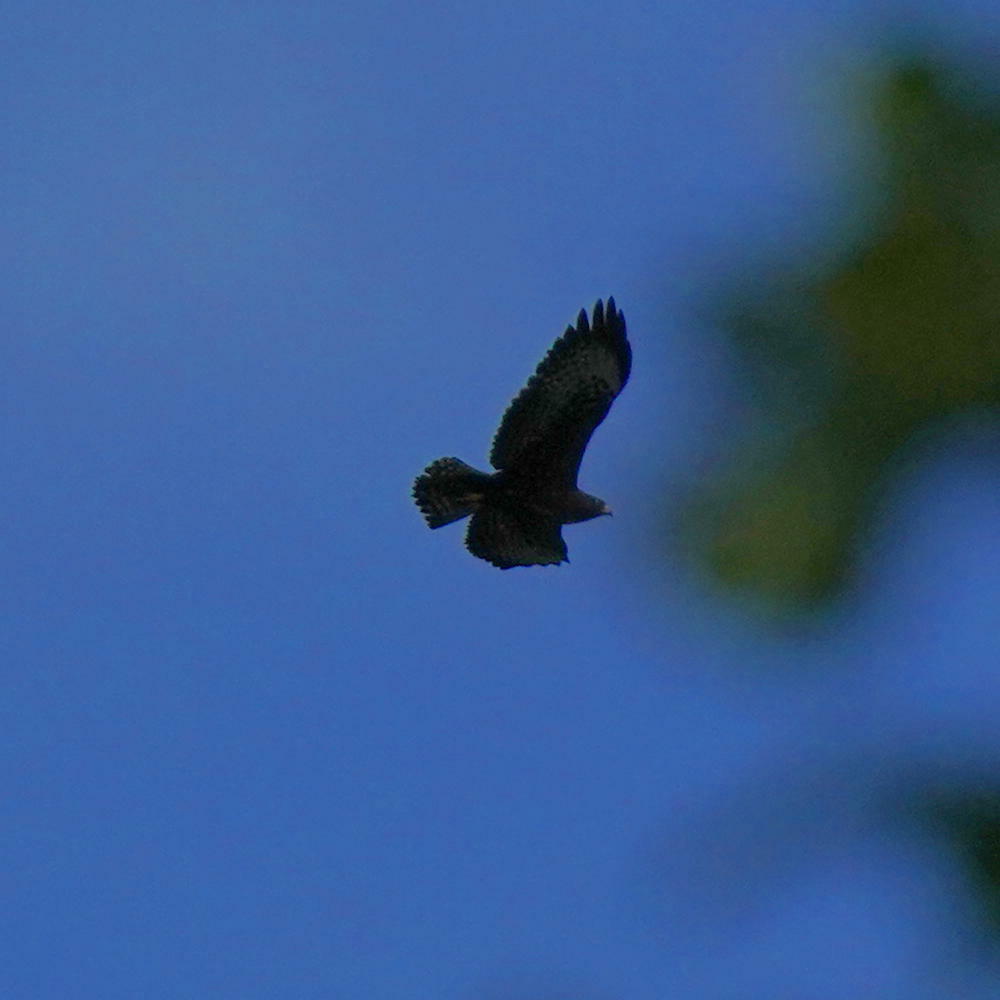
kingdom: Animalia
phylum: Chordata
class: Aves
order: Accipitriformes
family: Accipitridae
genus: Buteo
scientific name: Buteo brachyurus
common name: Short-tailed hawk
